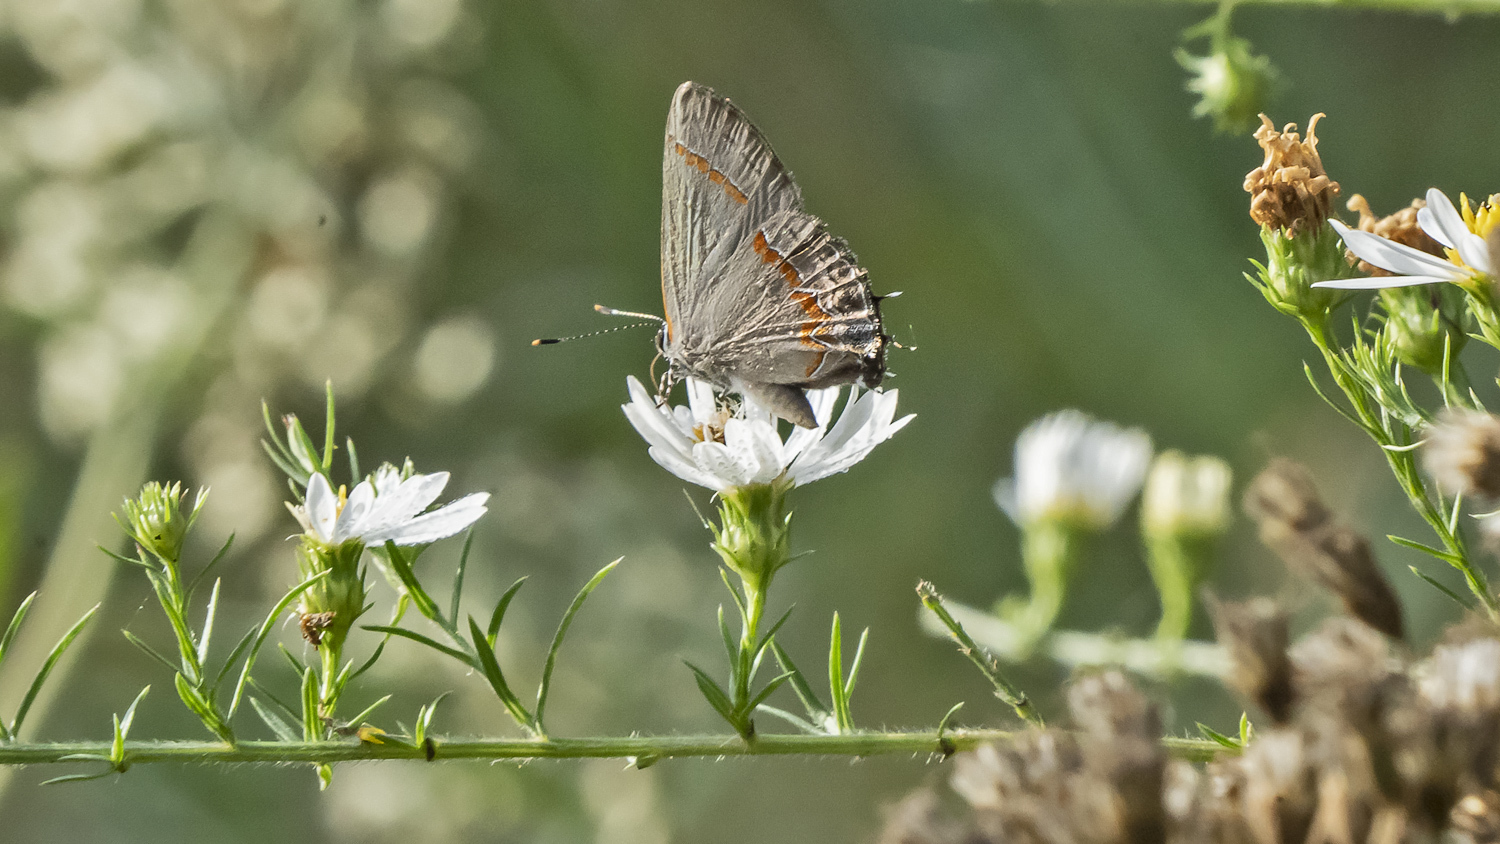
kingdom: Animalia
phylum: Arthropoda
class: Insecta
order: Lepidoptera
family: Lycaenidae
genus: Calycopis
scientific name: Calycopis cecrops
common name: Red-banded hairstreak
